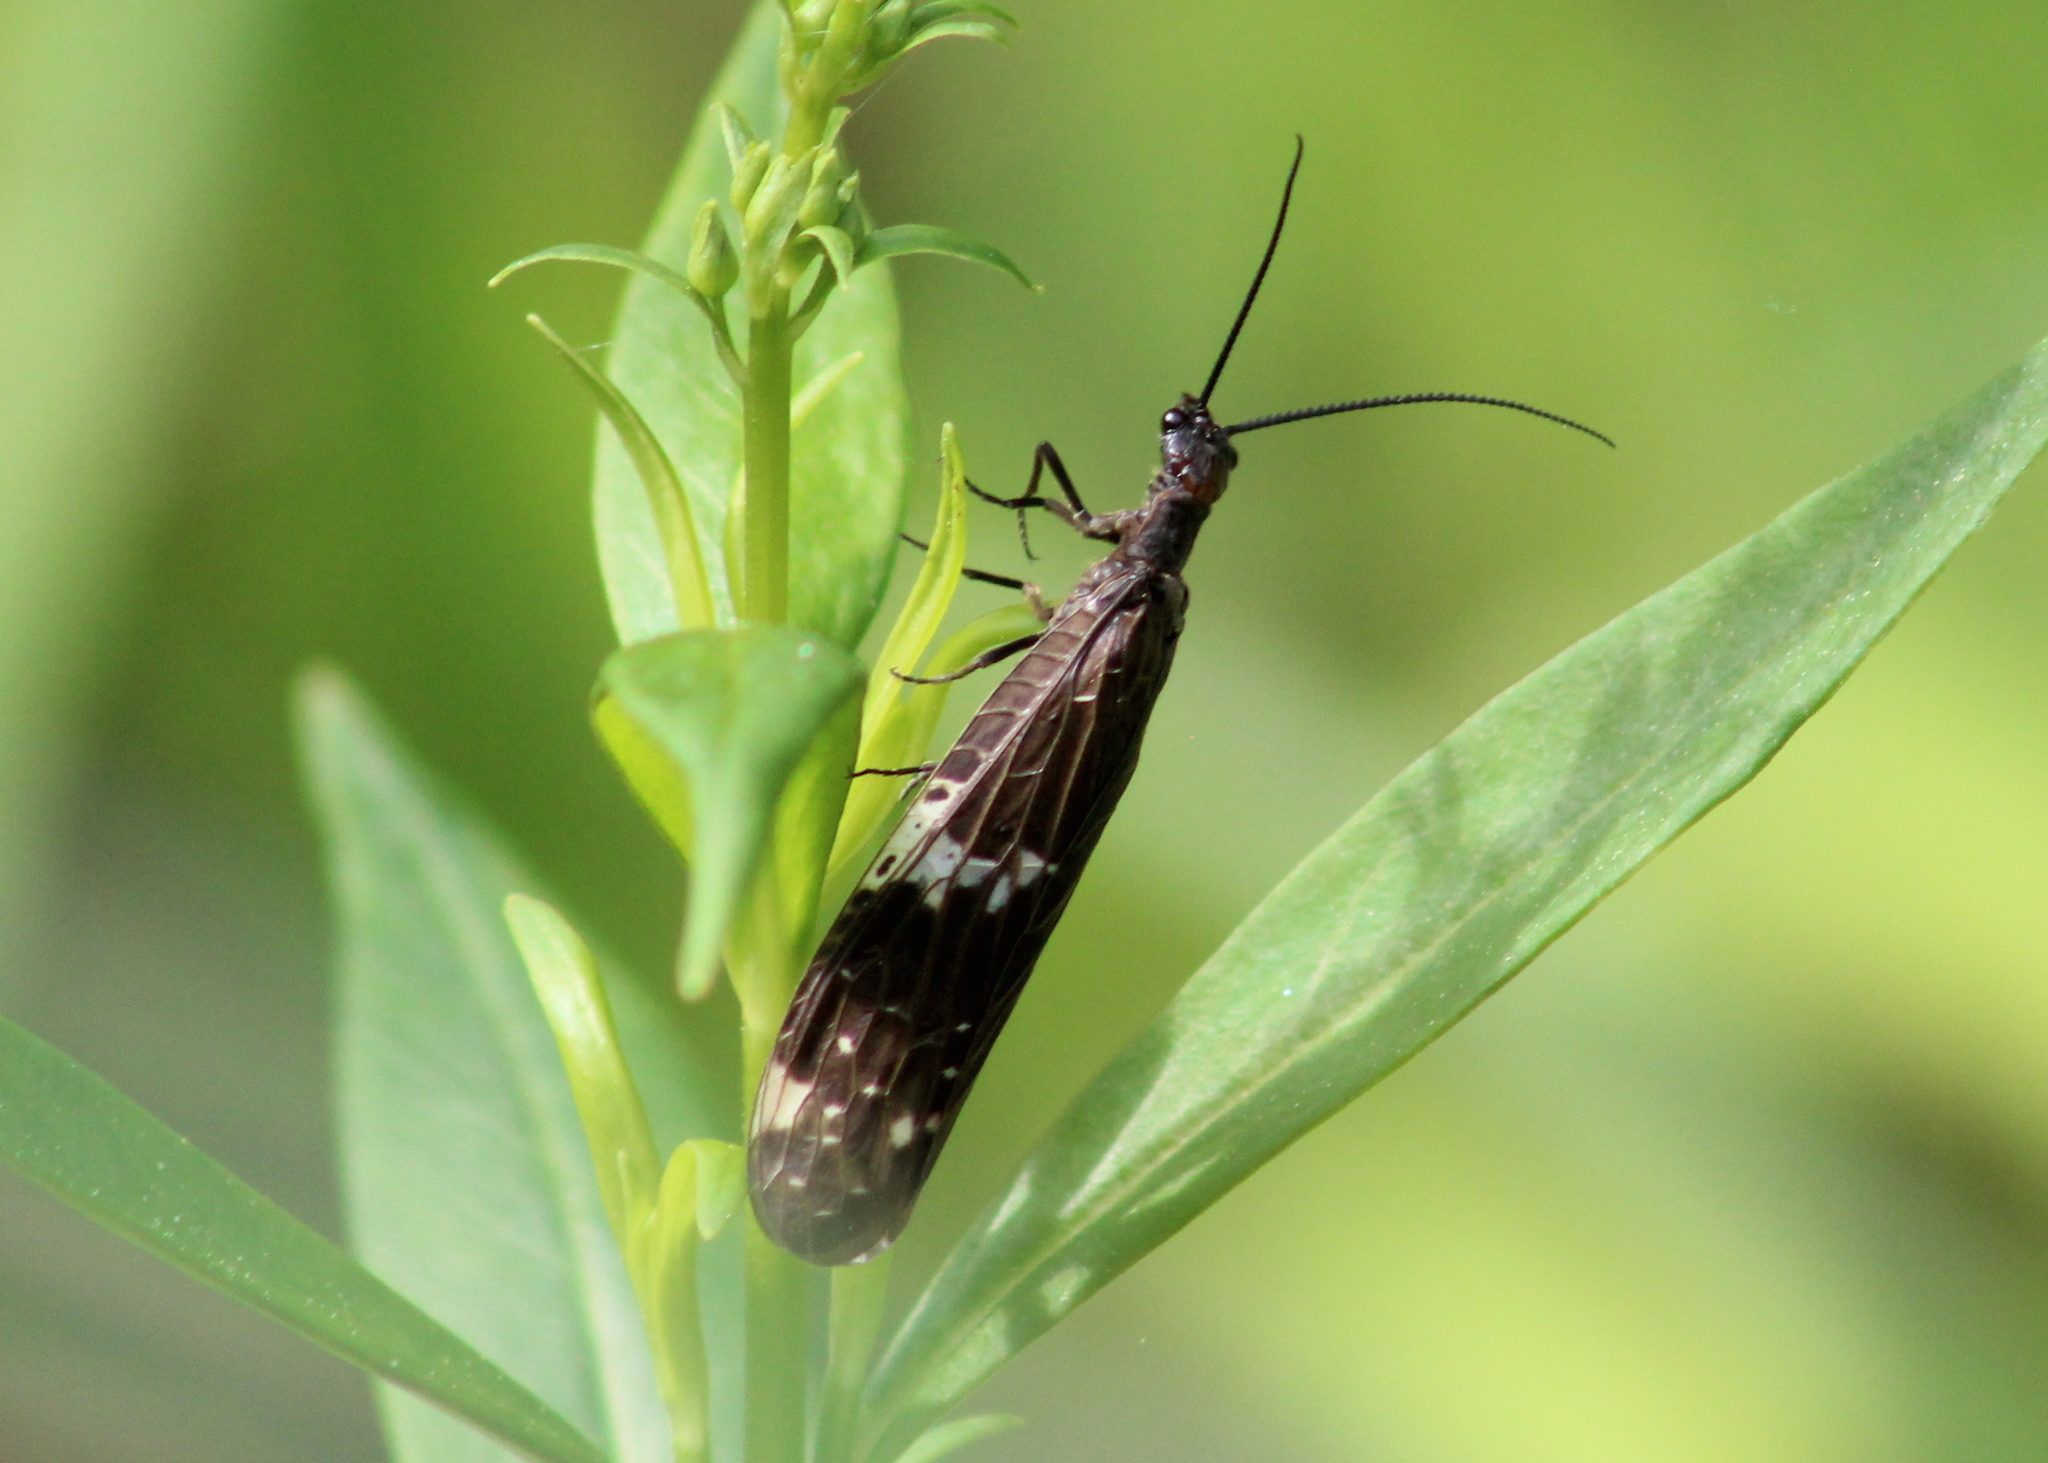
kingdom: Animalia
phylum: Arthropoda
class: Insecta
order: Megaloptera
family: Corydalidae
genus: Nigronia
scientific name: Nigronia serricornis
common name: Serrate dark fishfly
